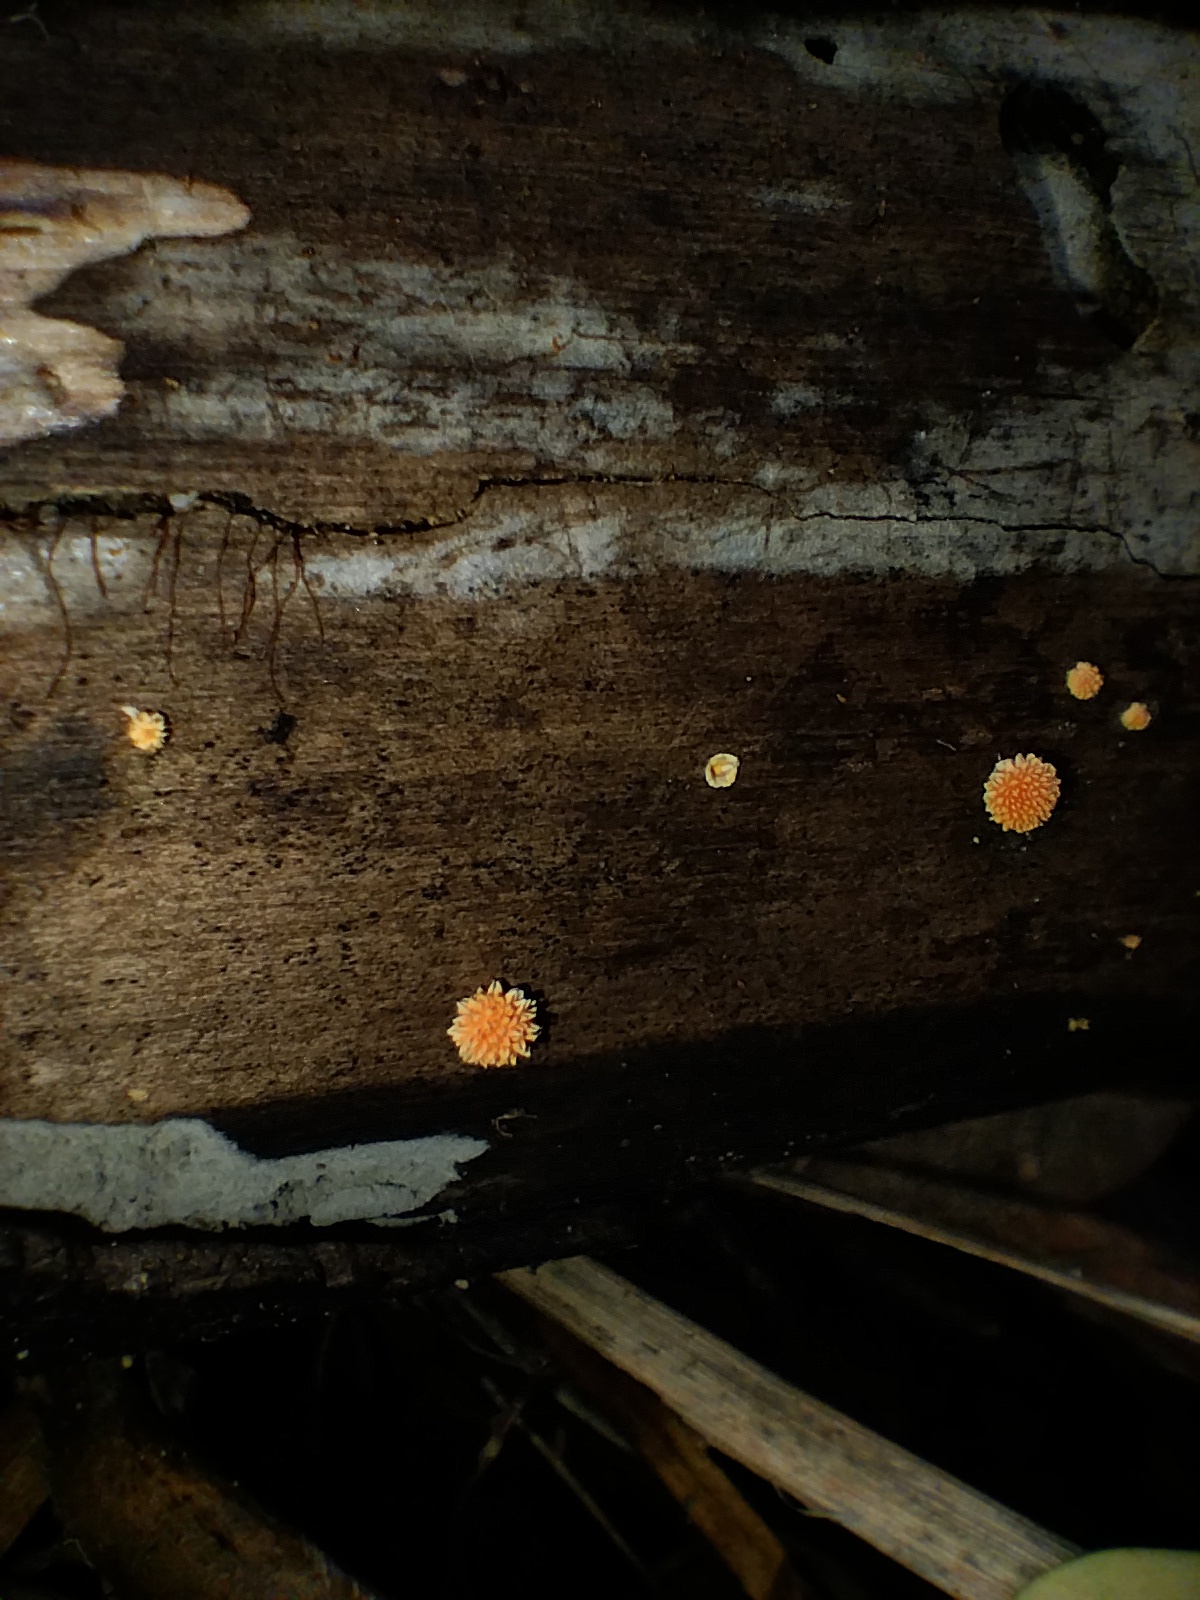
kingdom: Fungi
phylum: Basidiomycota
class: Agaricomycetes
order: Agaricales
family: Physalacriaceae
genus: Cyptotrama
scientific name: Cyptotrama asprata
